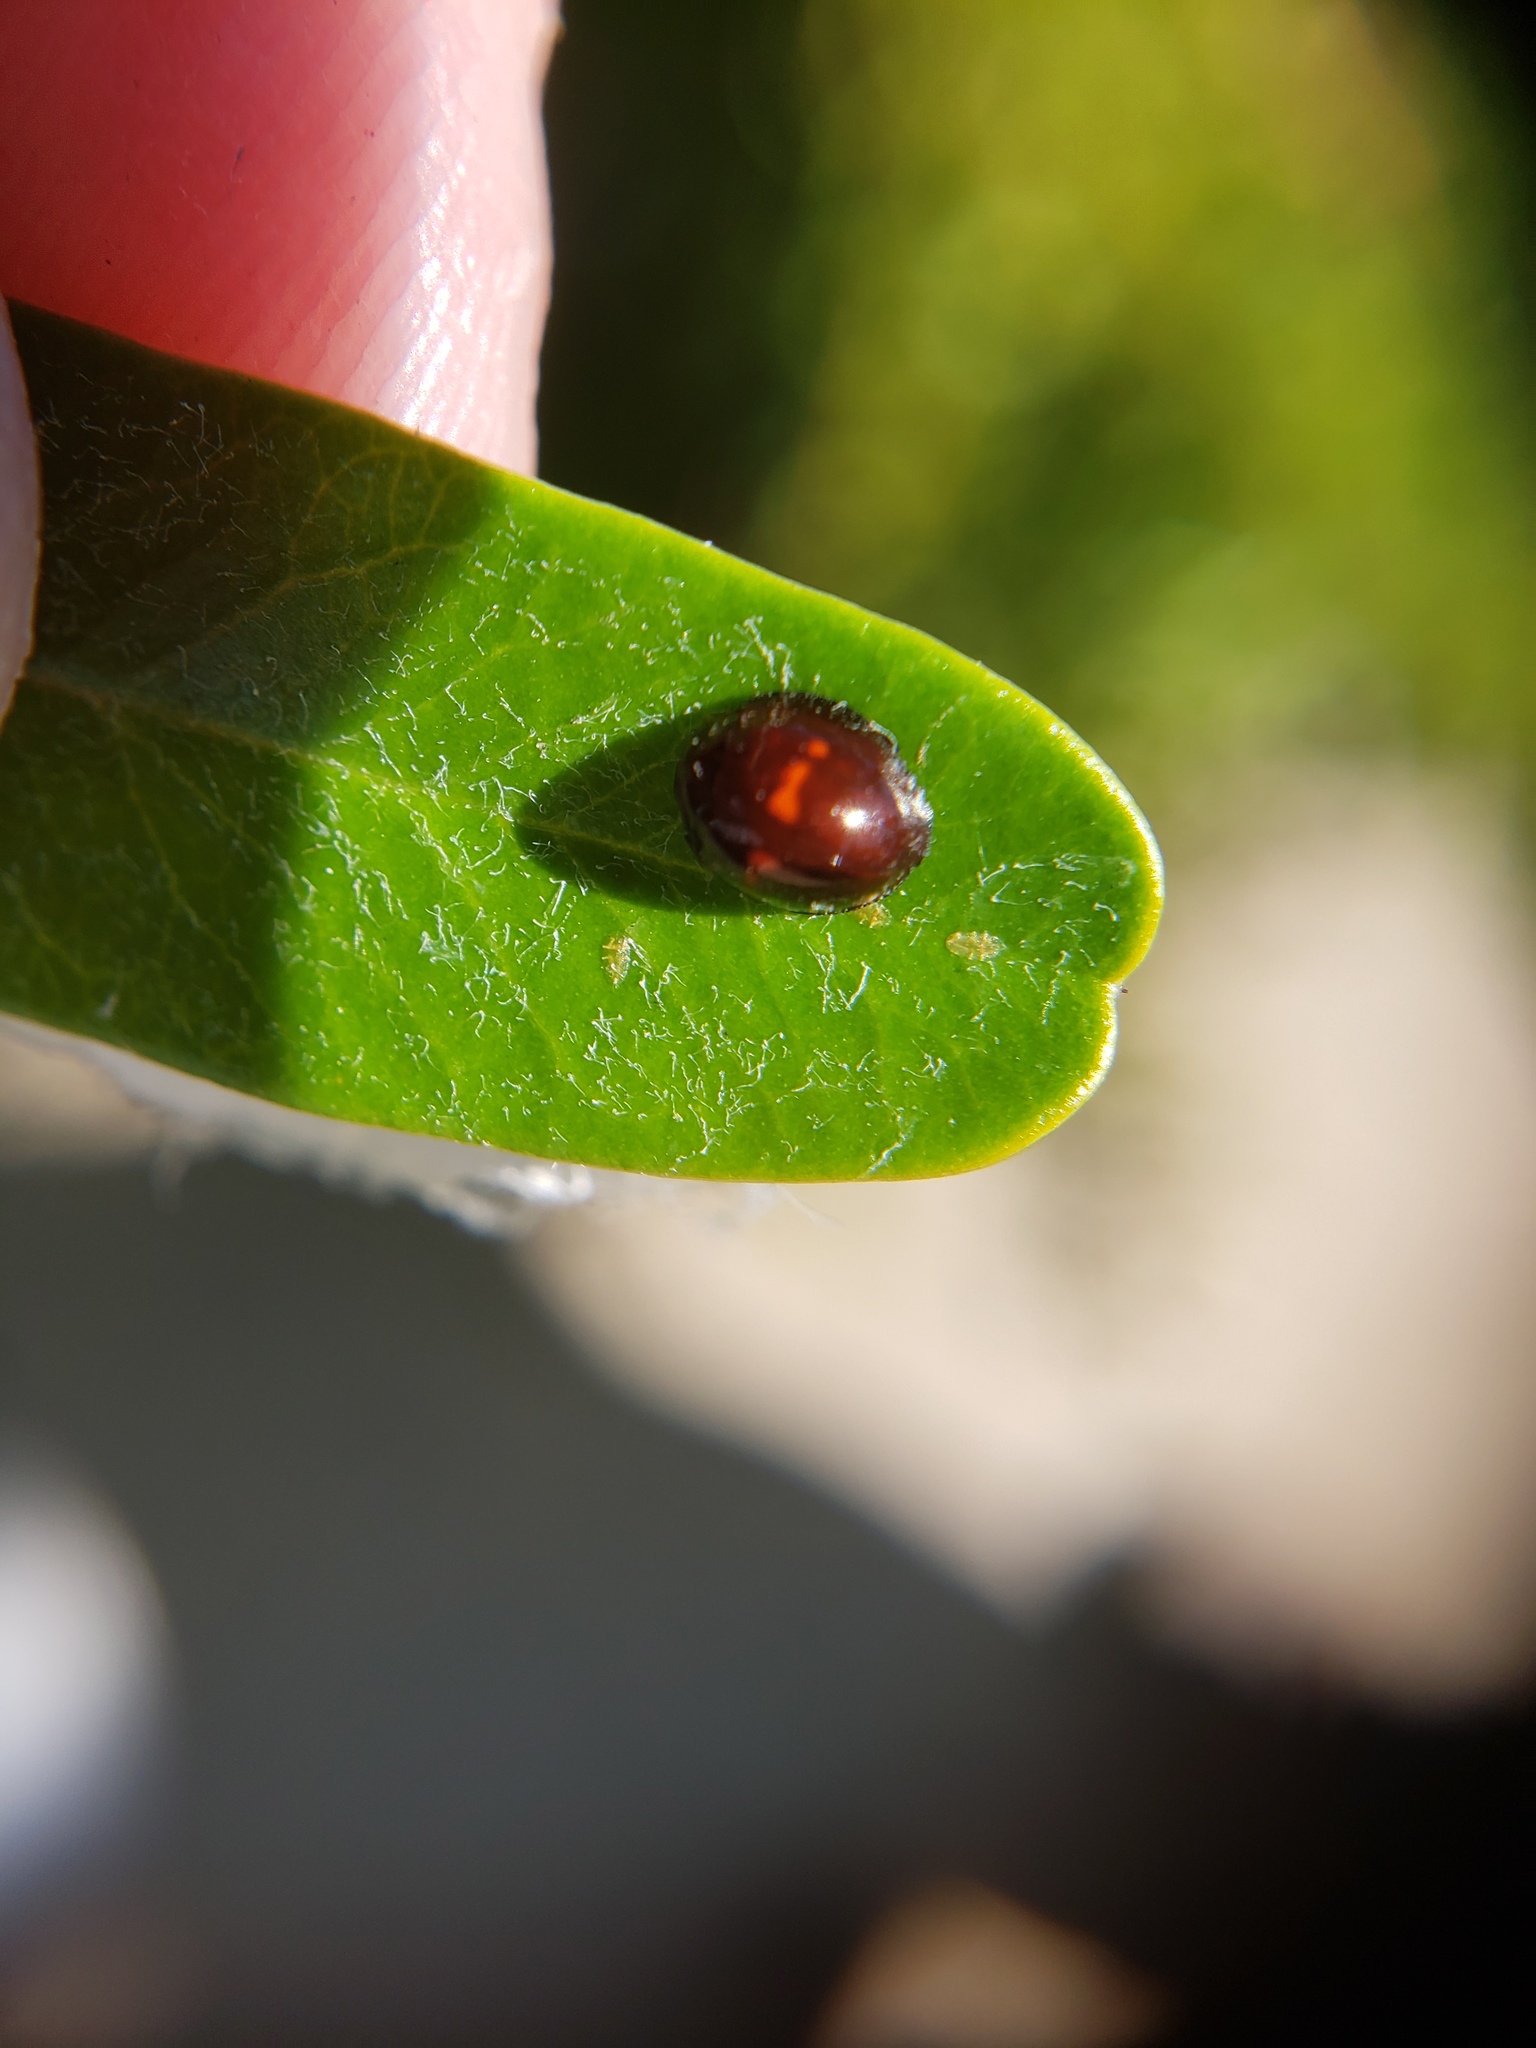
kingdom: Animalia
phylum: Arthropoda
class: Insecta
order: Coleoptera
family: Coccinellidae
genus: Chilocorus
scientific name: Chilocorus bipustulatus
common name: Heather ladybird
